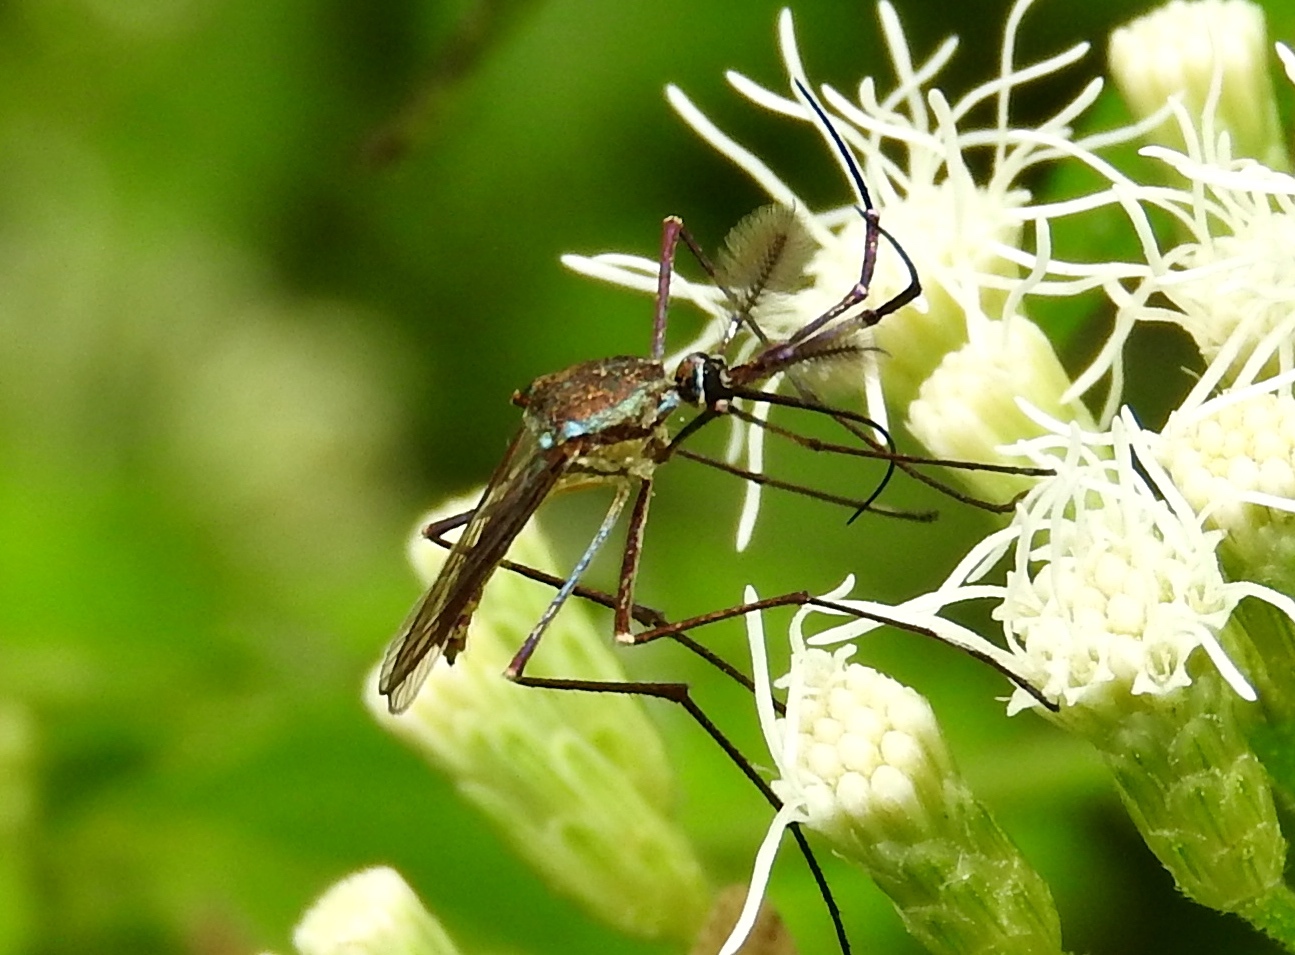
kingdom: Animalia
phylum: Arthropoda
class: Insecta
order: Diptera
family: Culicidae
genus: Toxorhynchites
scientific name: Toxorhynchites
